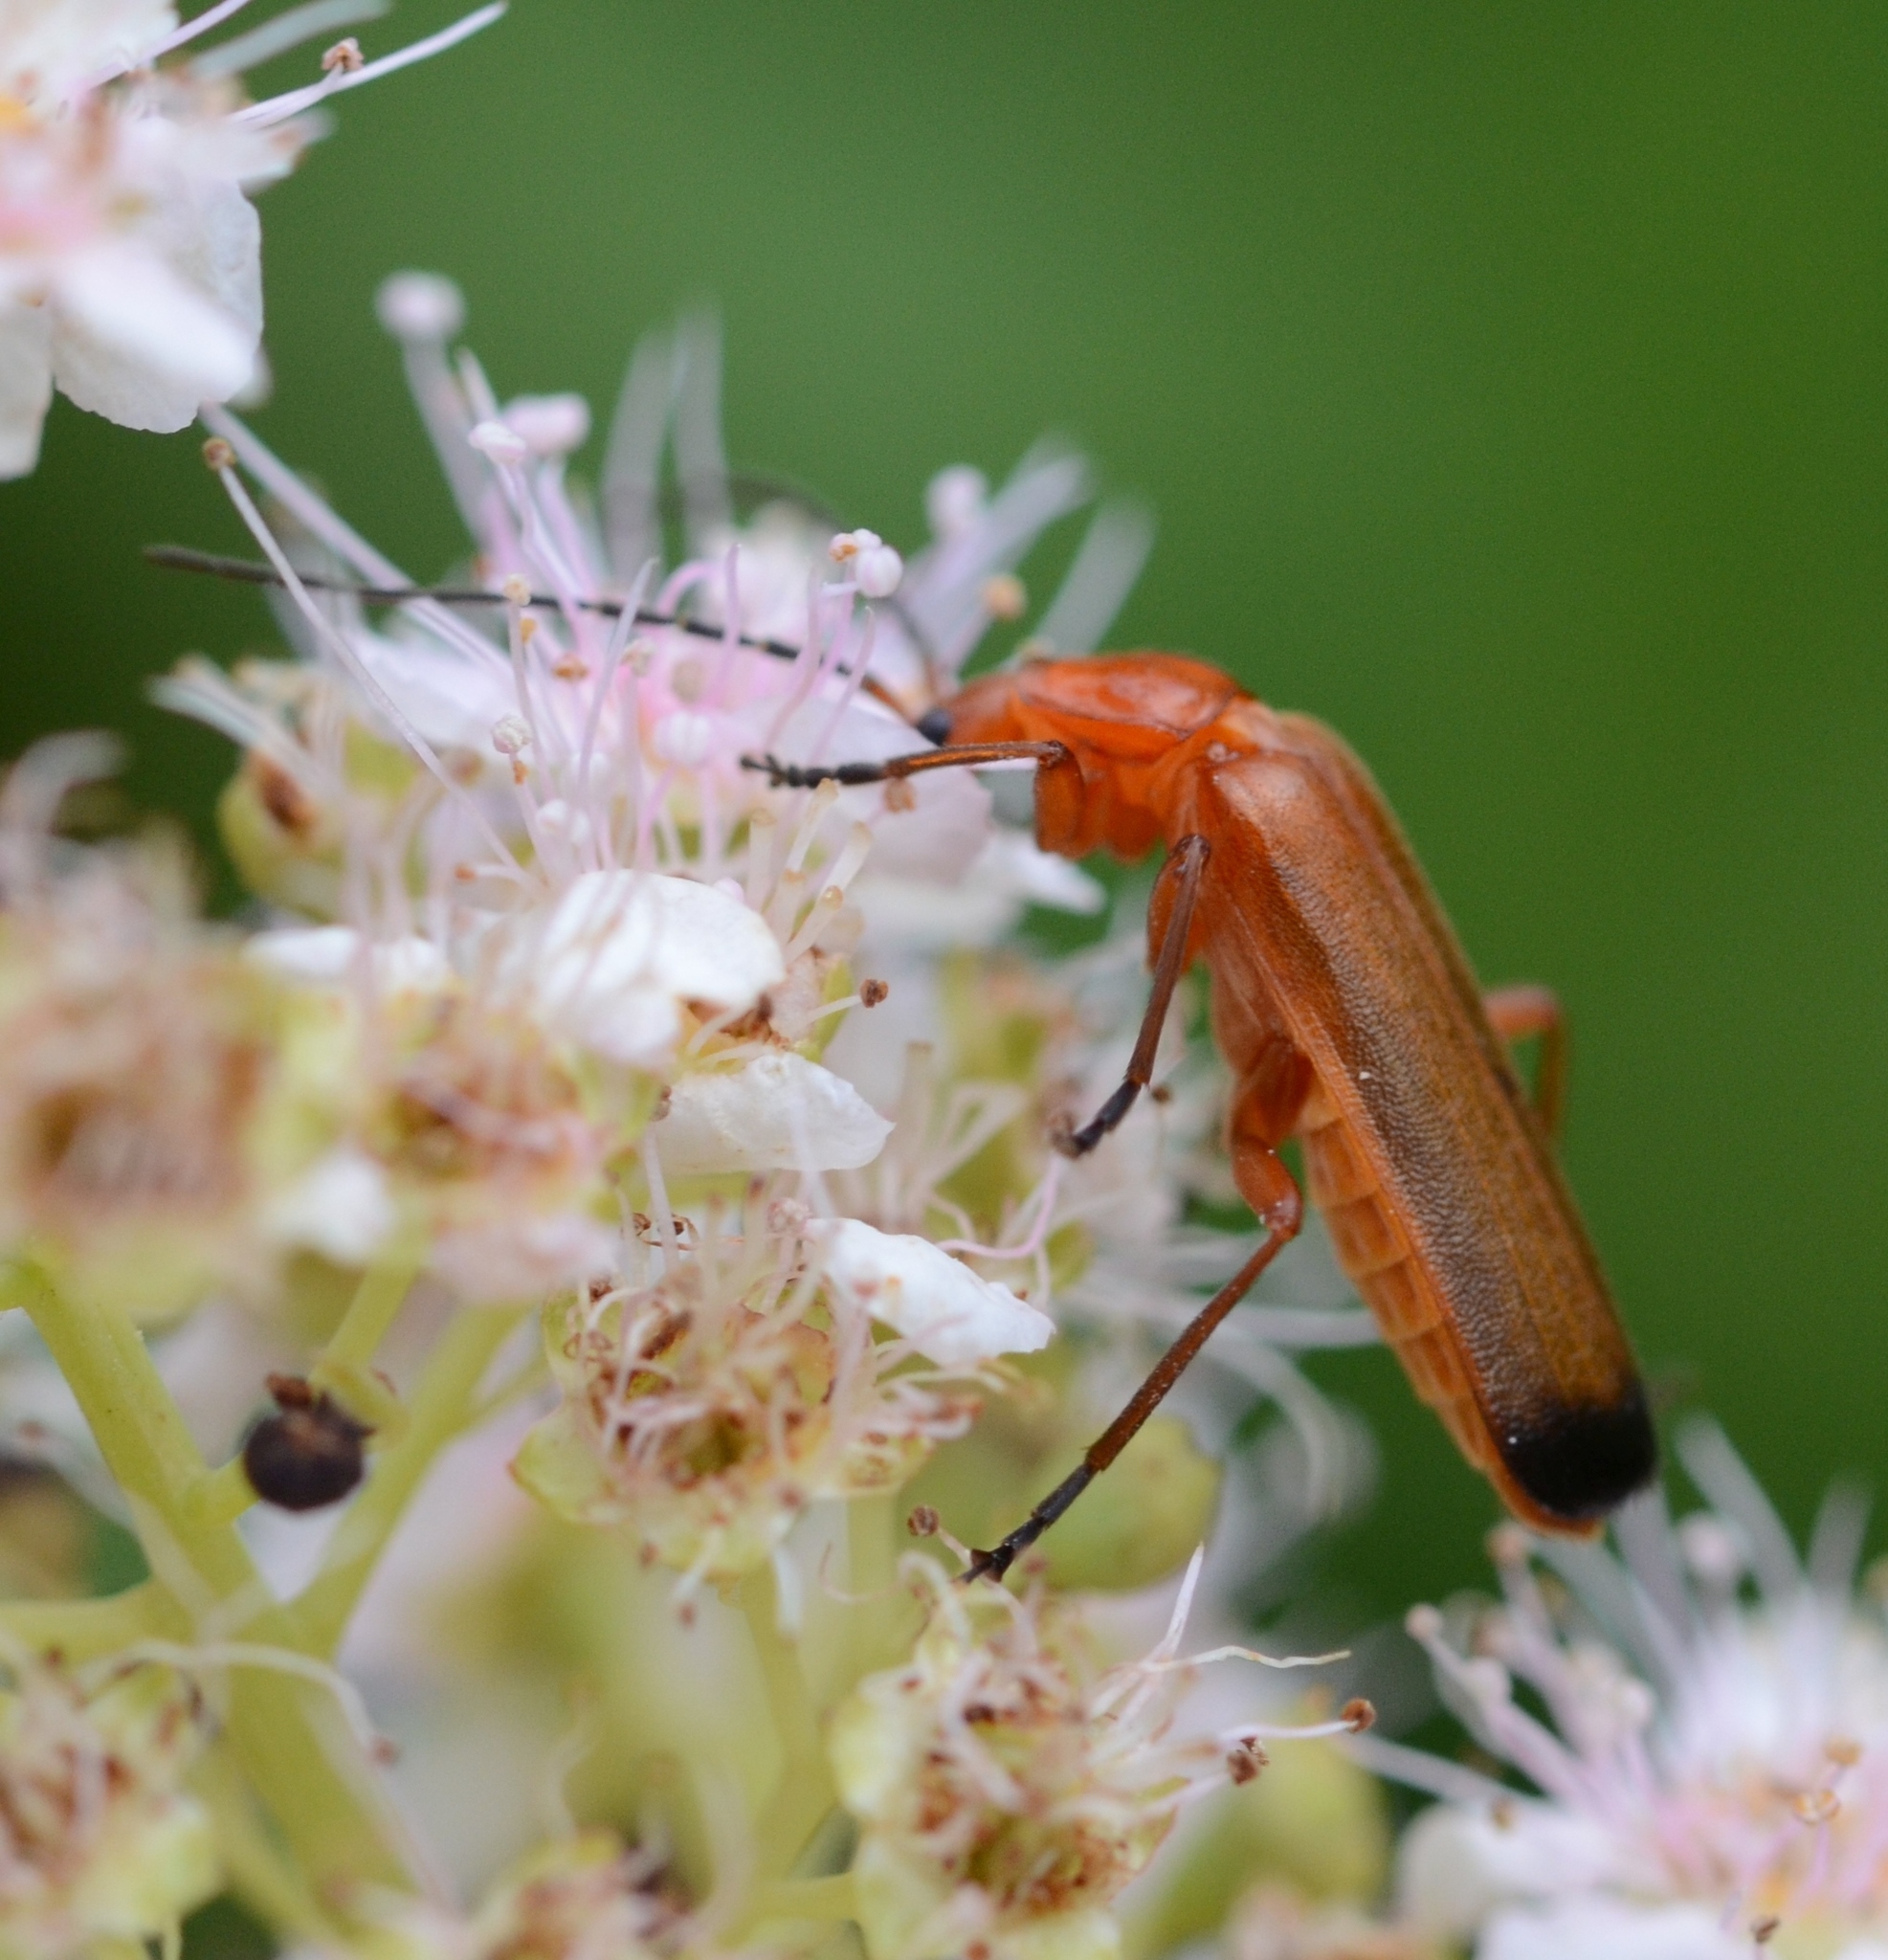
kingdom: Animalia
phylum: Arthropoda
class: Insecta
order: Coleoptera
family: Cantharidae
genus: Rhagonycha
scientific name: Rhagonycha fulva
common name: Common red soldier beetle
